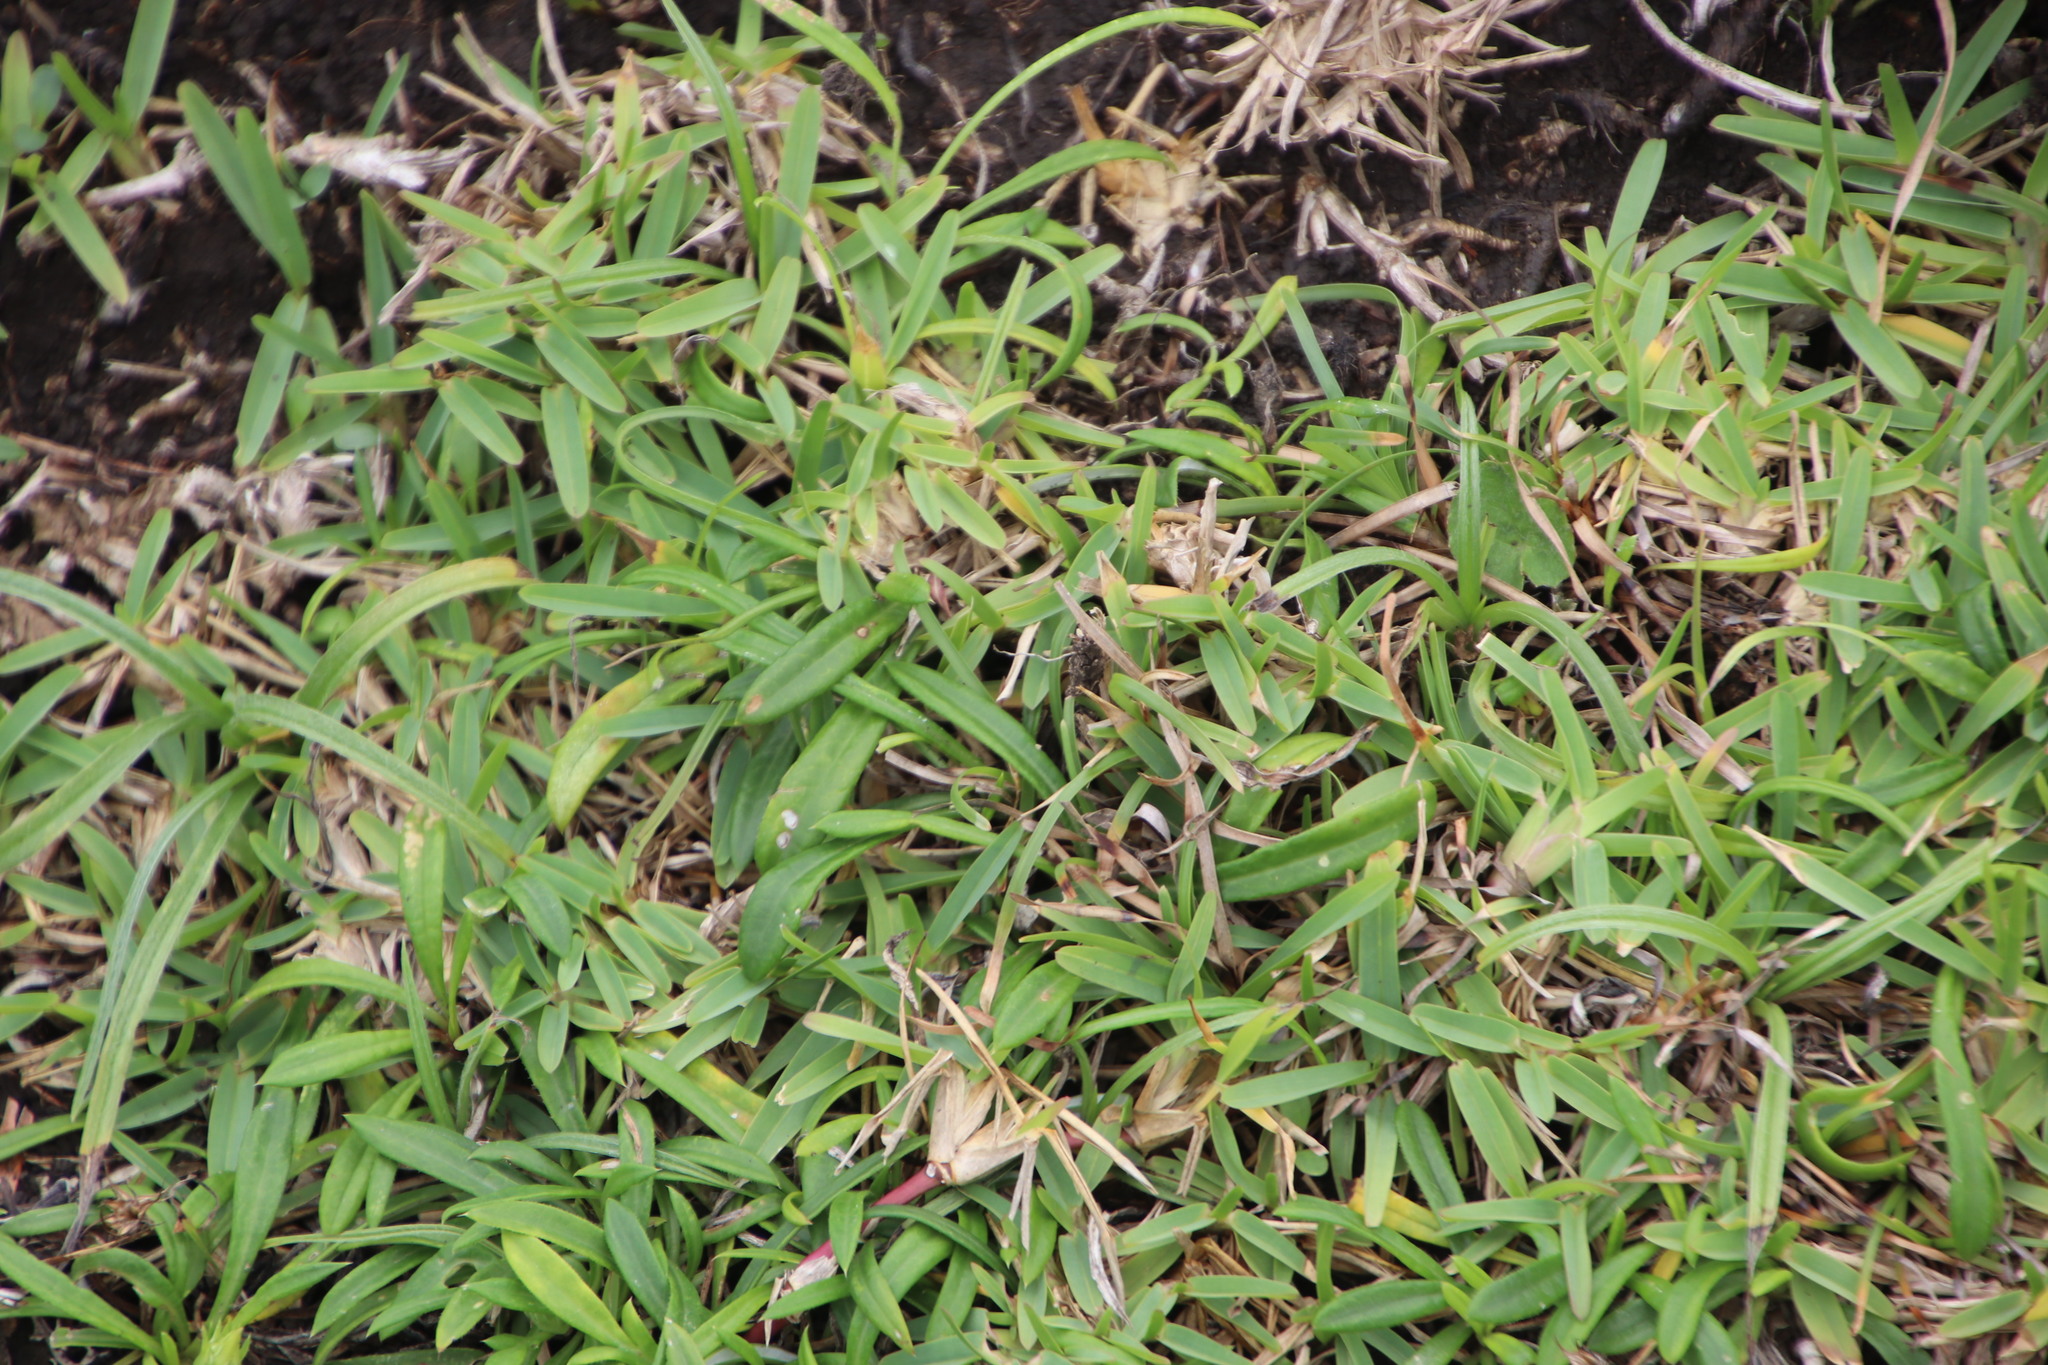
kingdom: Plantae
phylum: Tracheophyta
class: Liliopsida
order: Poales
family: Poaceae
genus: Stenotaphrum
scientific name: Stenotaphrum secundatum
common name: St. augustine grass
